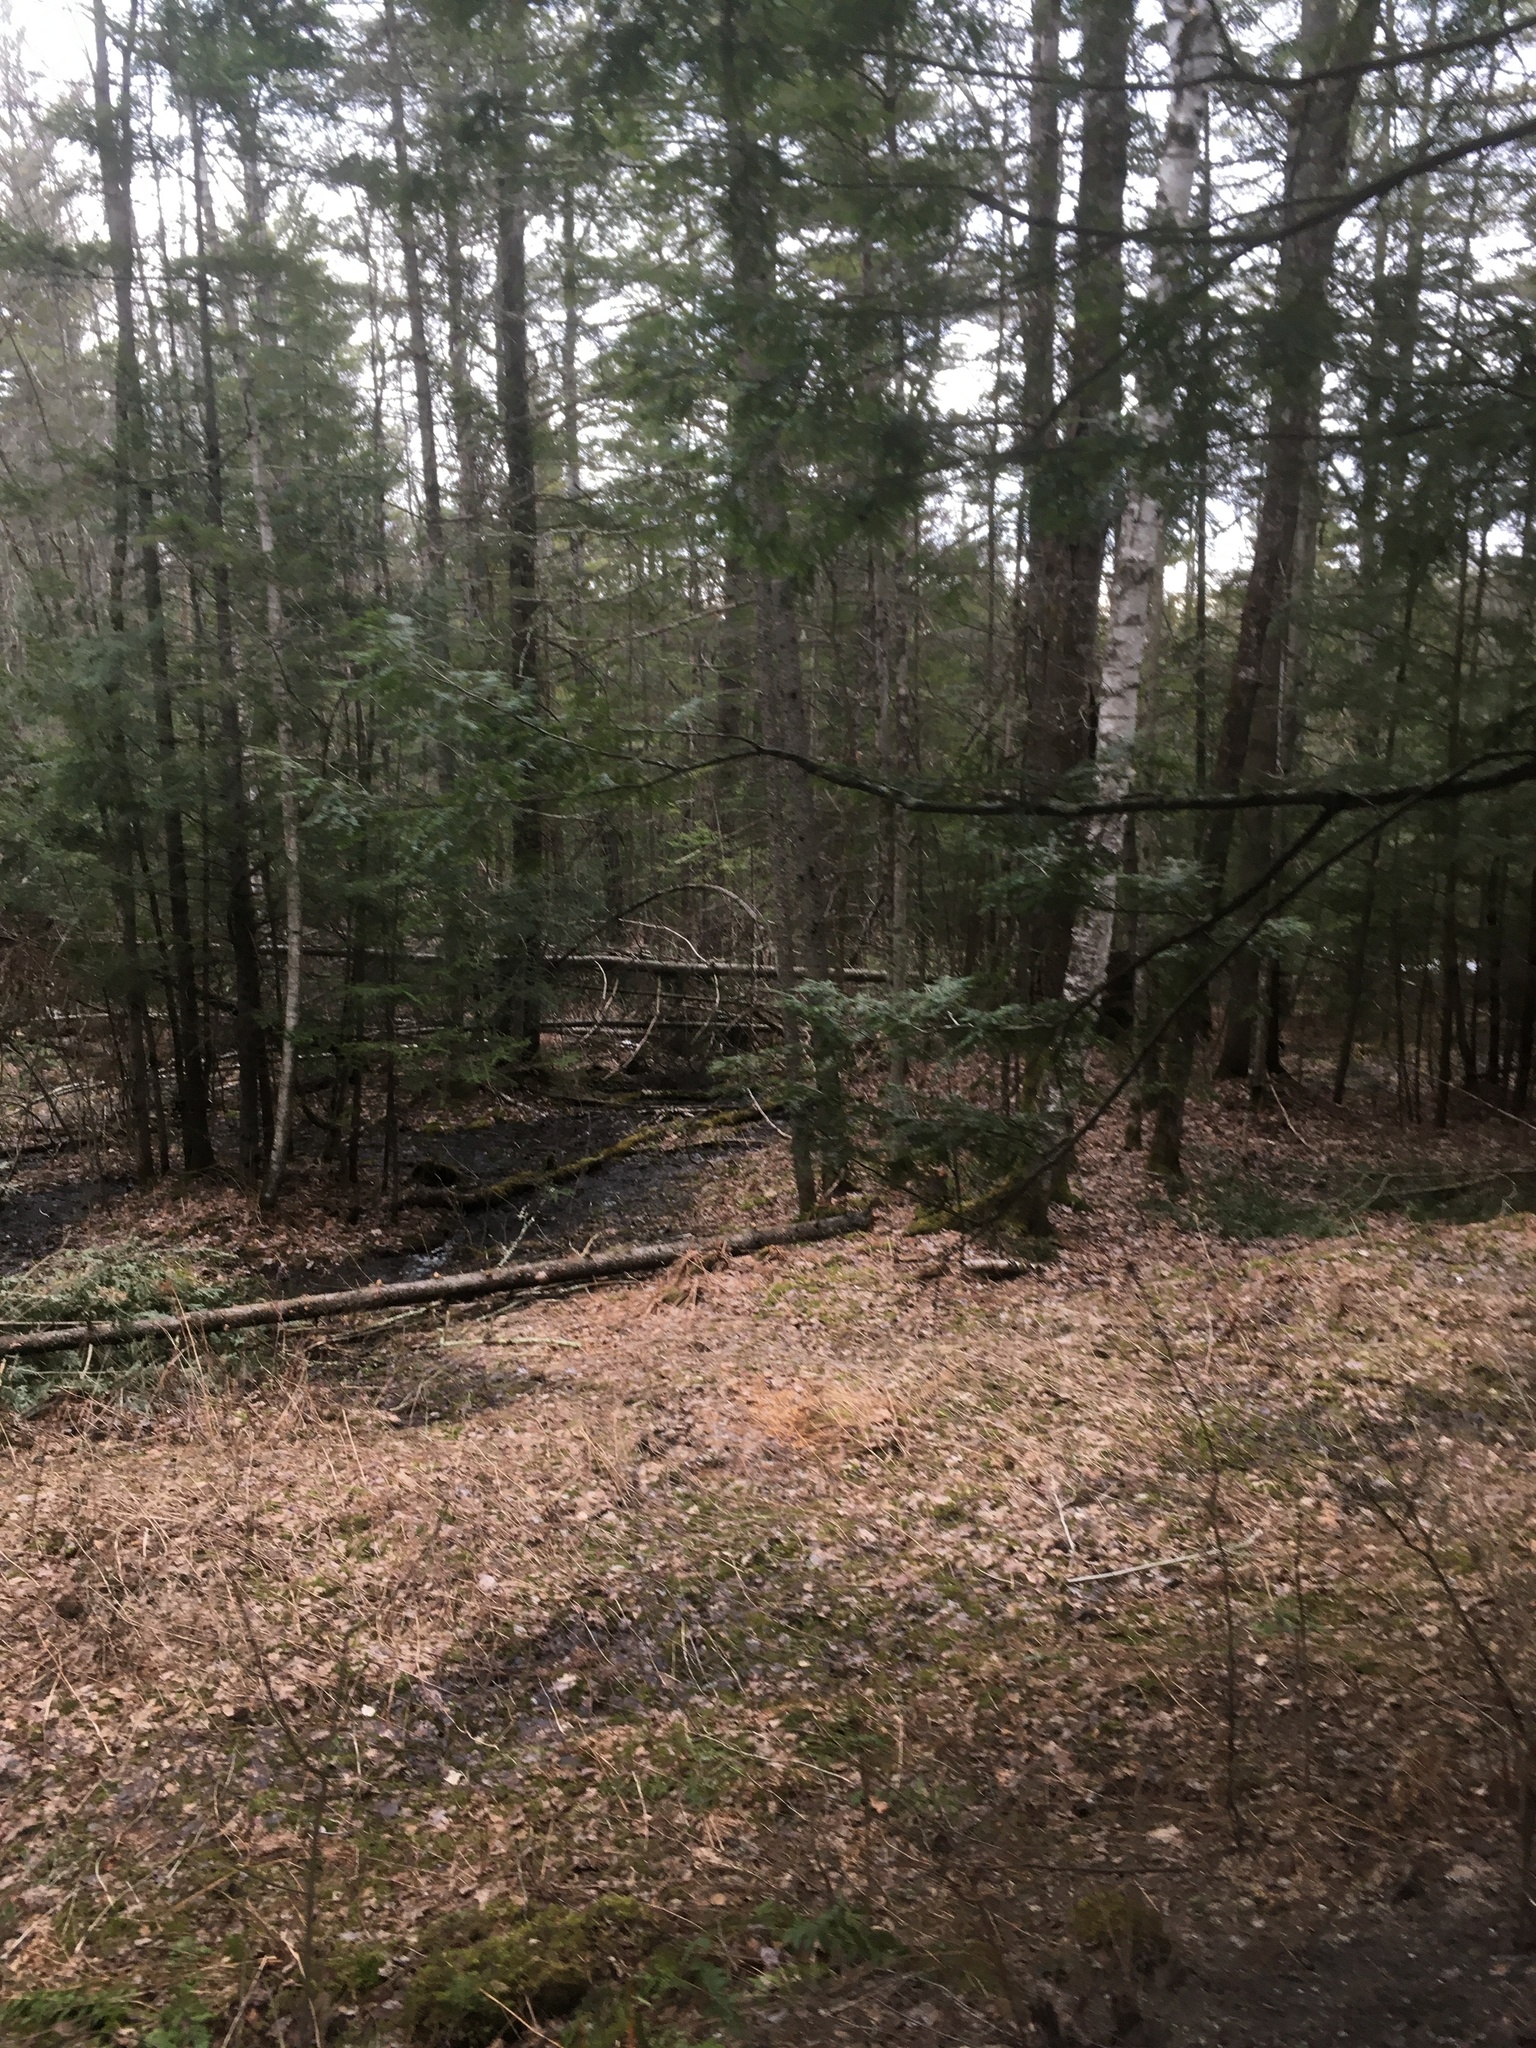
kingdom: Plantae
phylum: Tracheophyta
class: Pinopsida
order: Pinales
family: Pinaceae
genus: Picea
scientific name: Picea rubens
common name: Red spruce
